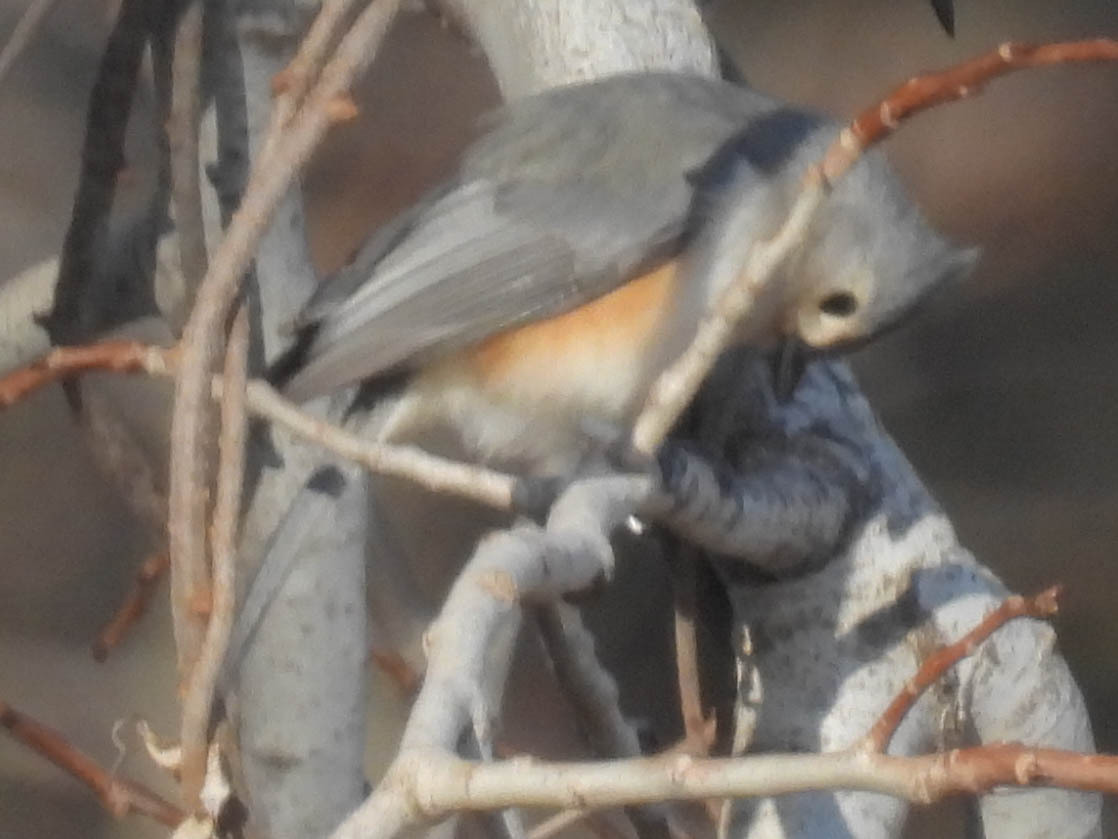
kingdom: Animalia
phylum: Chordata
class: Aves
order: Passeriformes
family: Paridae
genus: Baeolophus
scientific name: Baeolophus bicolor
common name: Tufted titmouse
